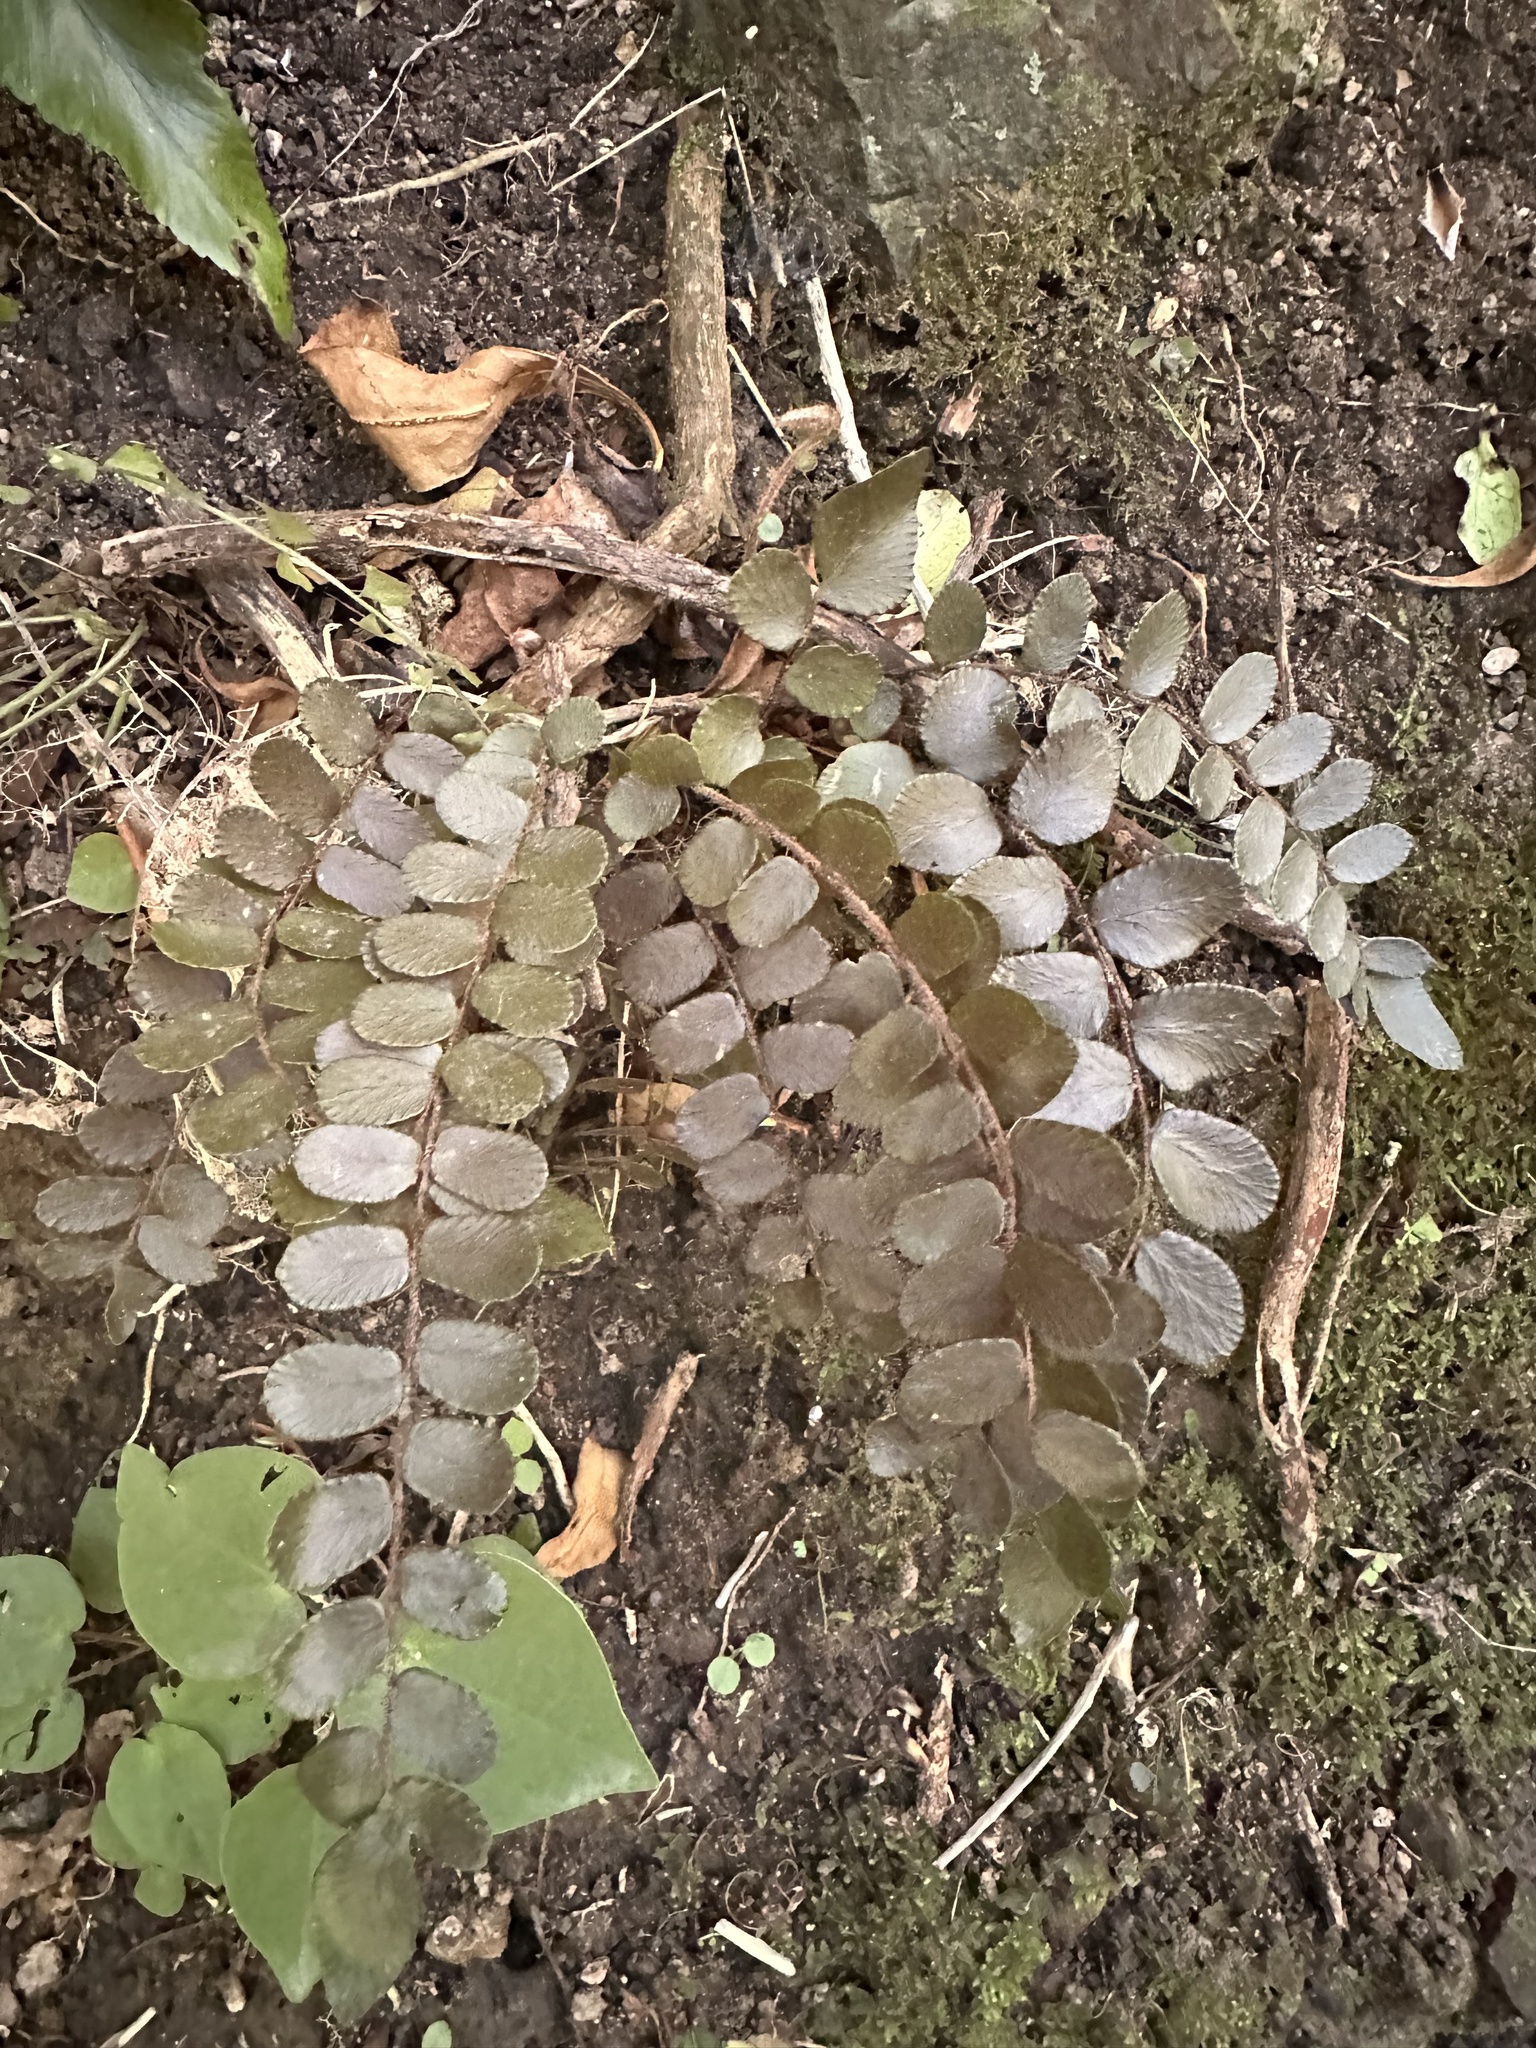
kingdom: Plantae
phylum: Tracheophyta
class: Polypodiopsida
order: Polypodiales
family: Pteridaceae
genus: Pellaea
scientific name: Pellaea rotundifolia
